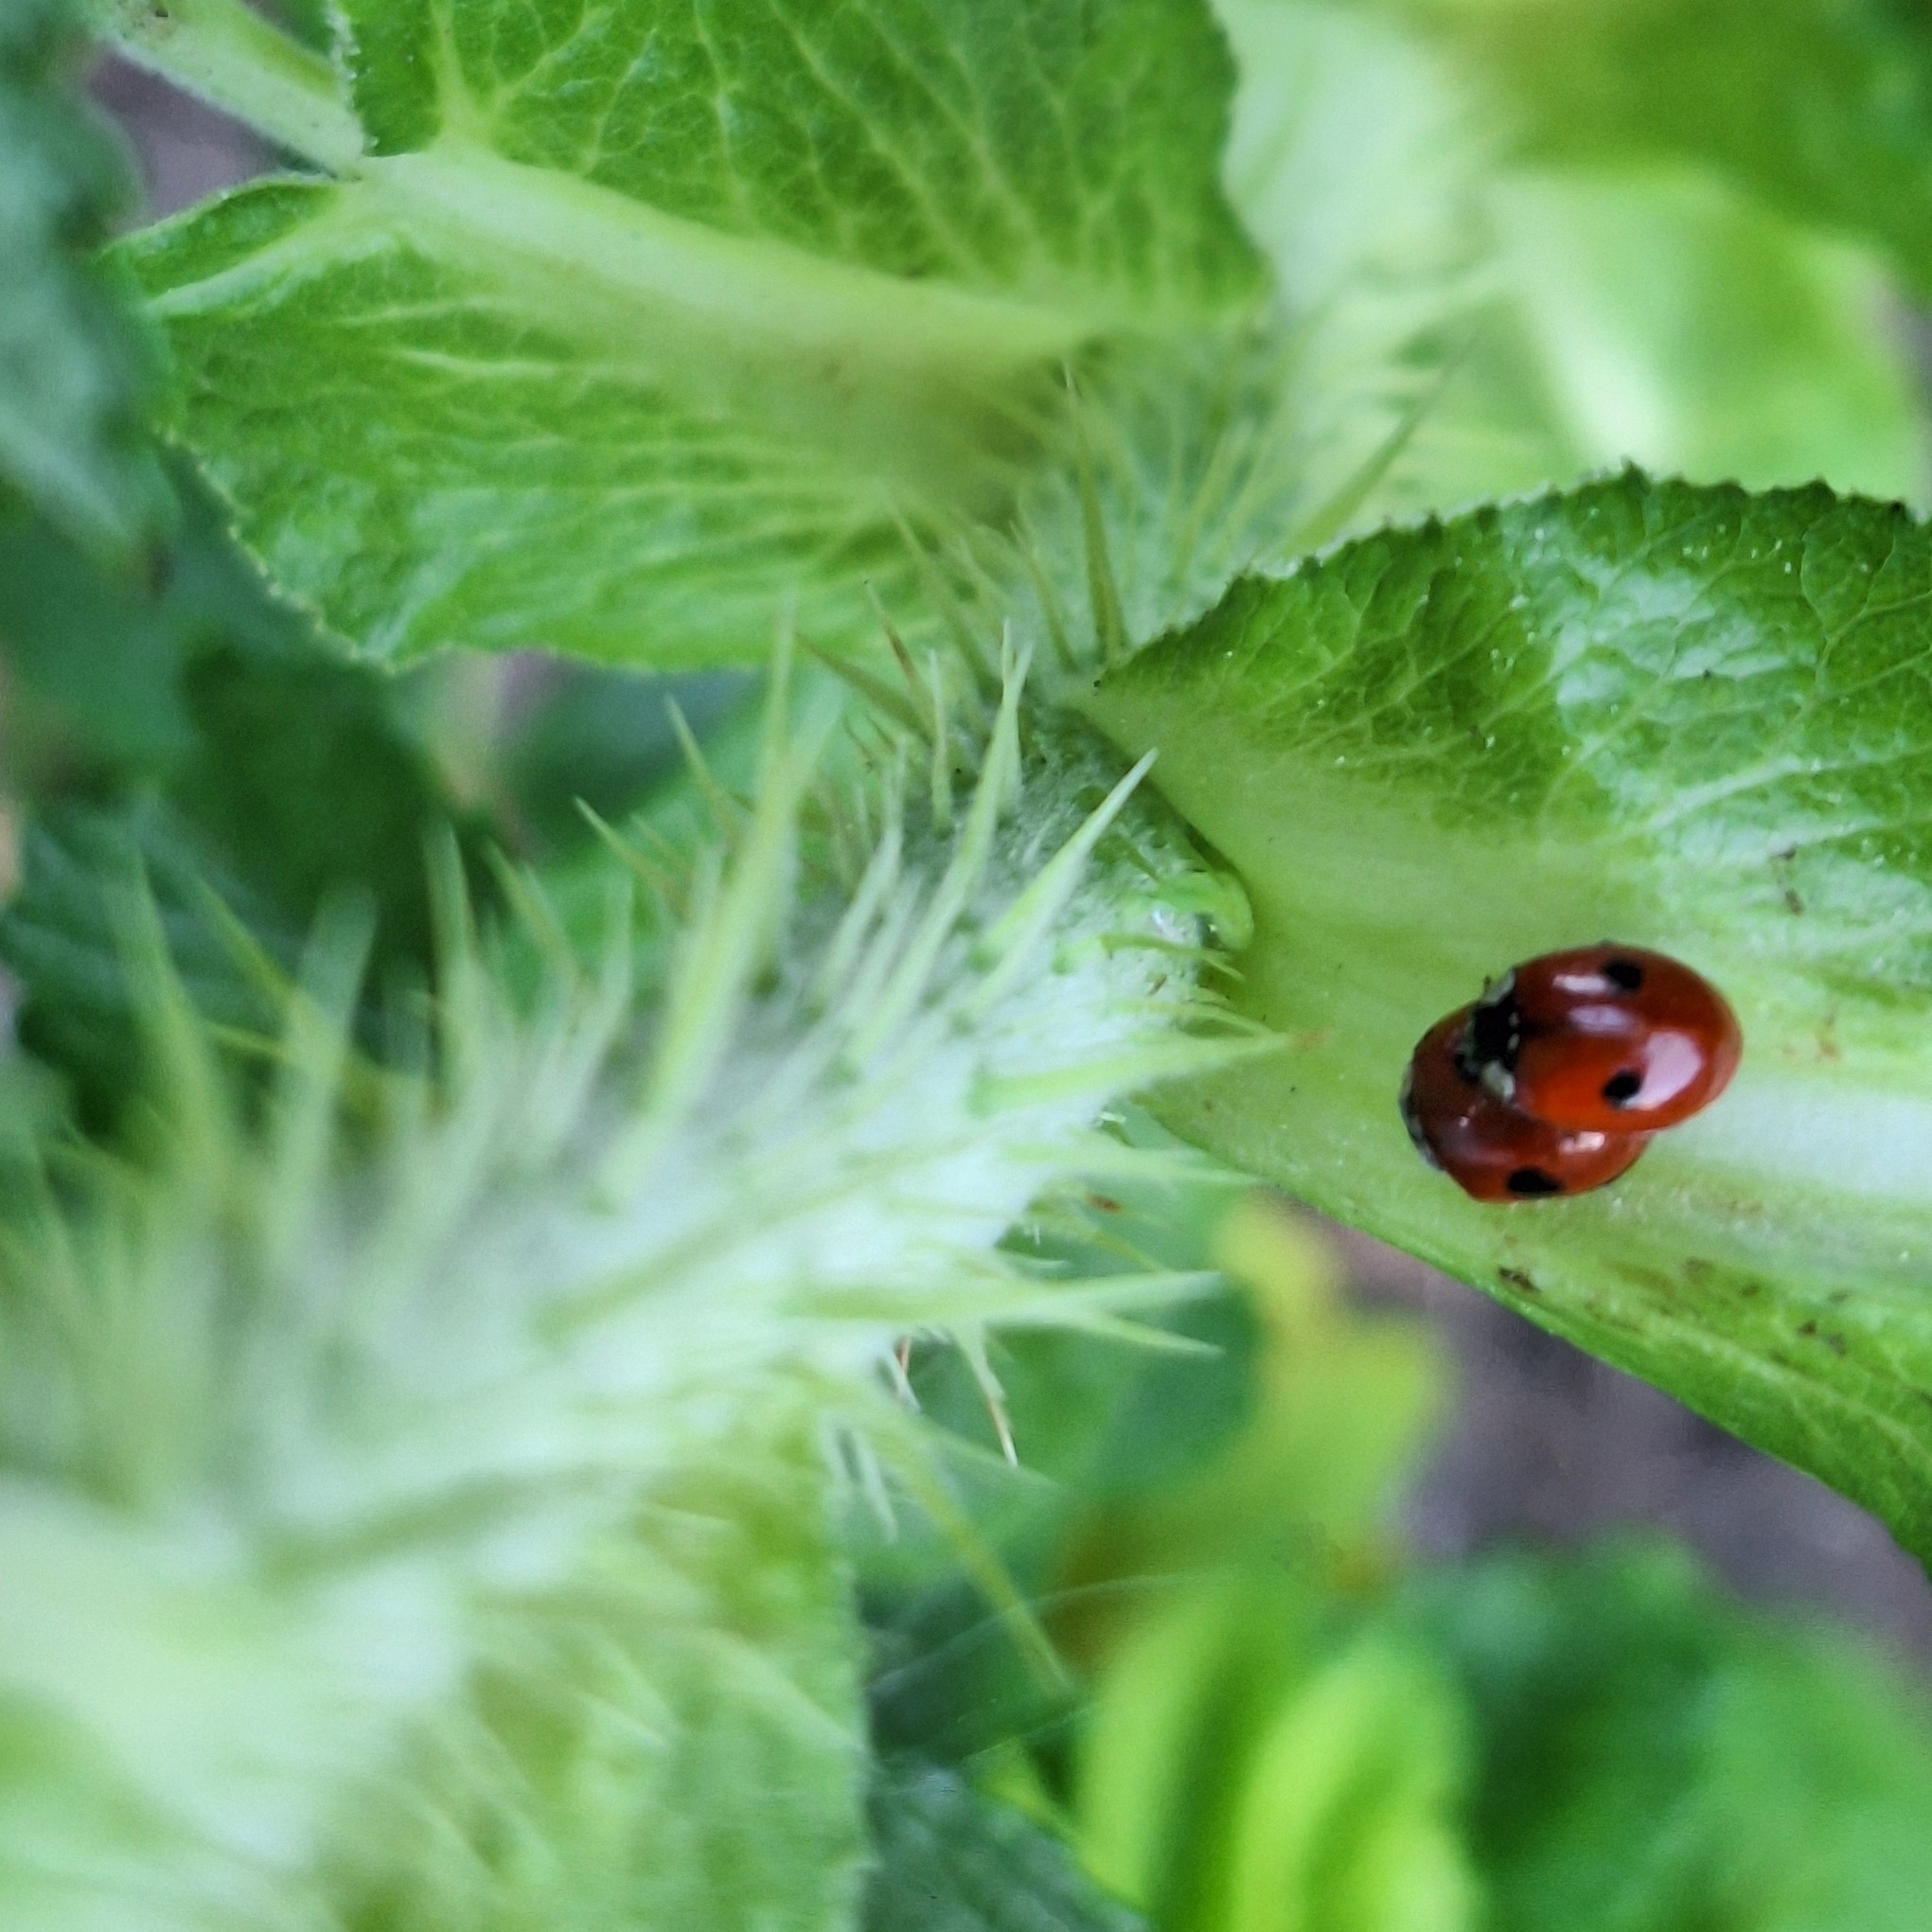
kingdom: Animalia
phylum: Arthropoda
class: Insecta
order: Coleoptera
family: Coccinellidae
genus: Adalia
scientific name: Adalia bipunctata
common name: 2-spot ladybird
